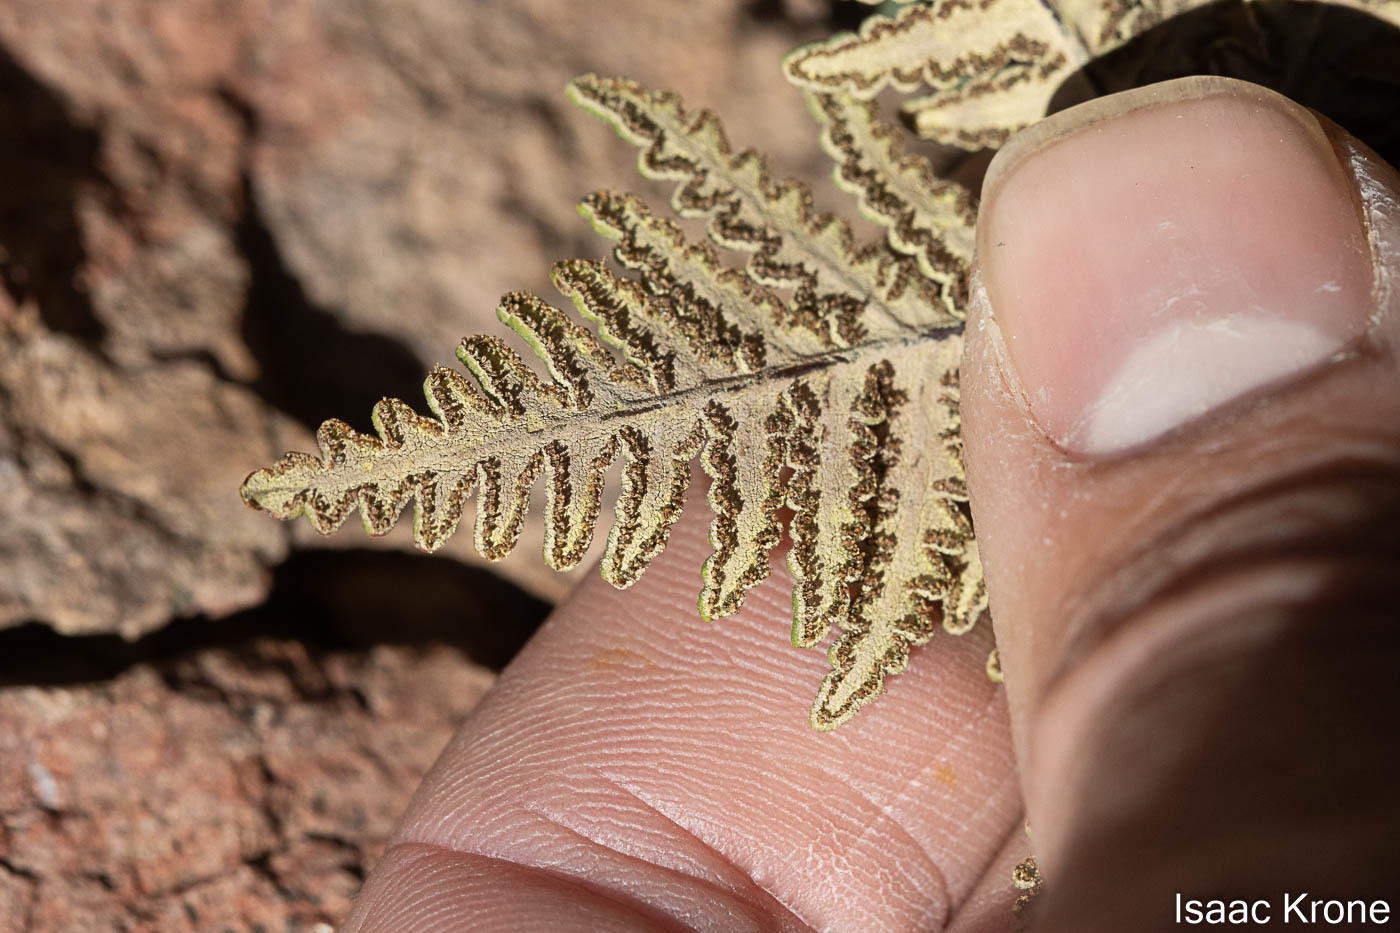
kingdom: Plantae
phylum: Tracheophyta
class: Polypodiopsida
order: Polypodiales
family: Pteridaceae
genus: Notholaena
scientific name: Notholaena standleyi
